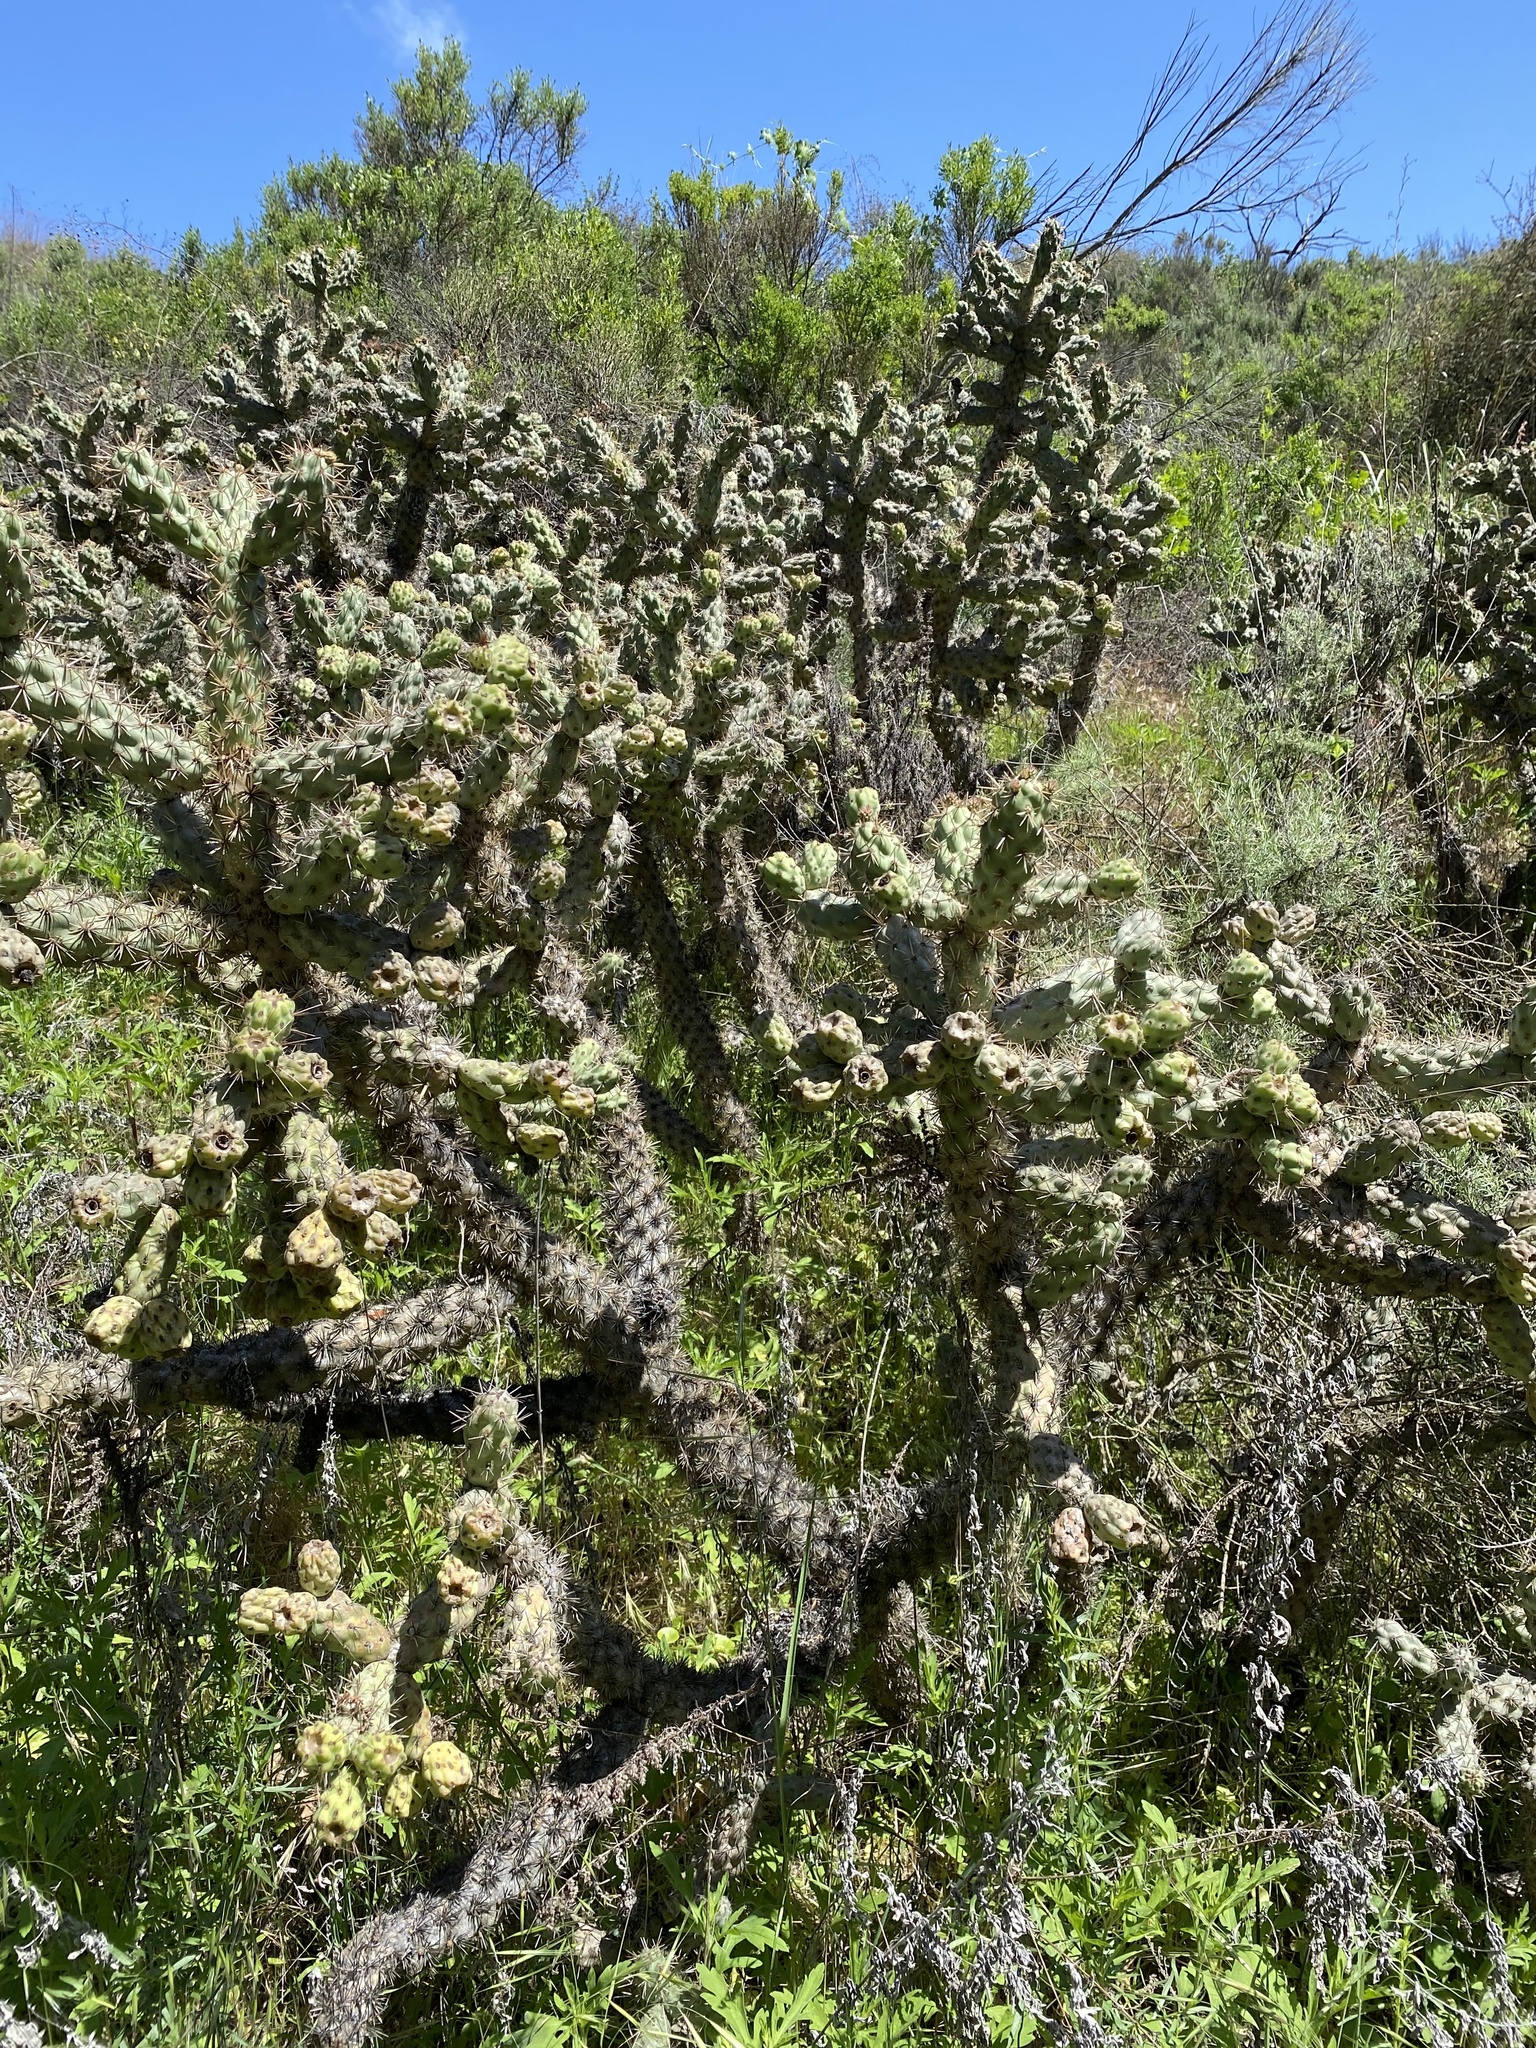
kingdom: Plantae
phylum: Tracheophyta
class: Magnoliopsida
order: Caryophyllales
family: Cactaceae
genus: Cylindropuntia
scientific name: Cylindropuntia prolifera
